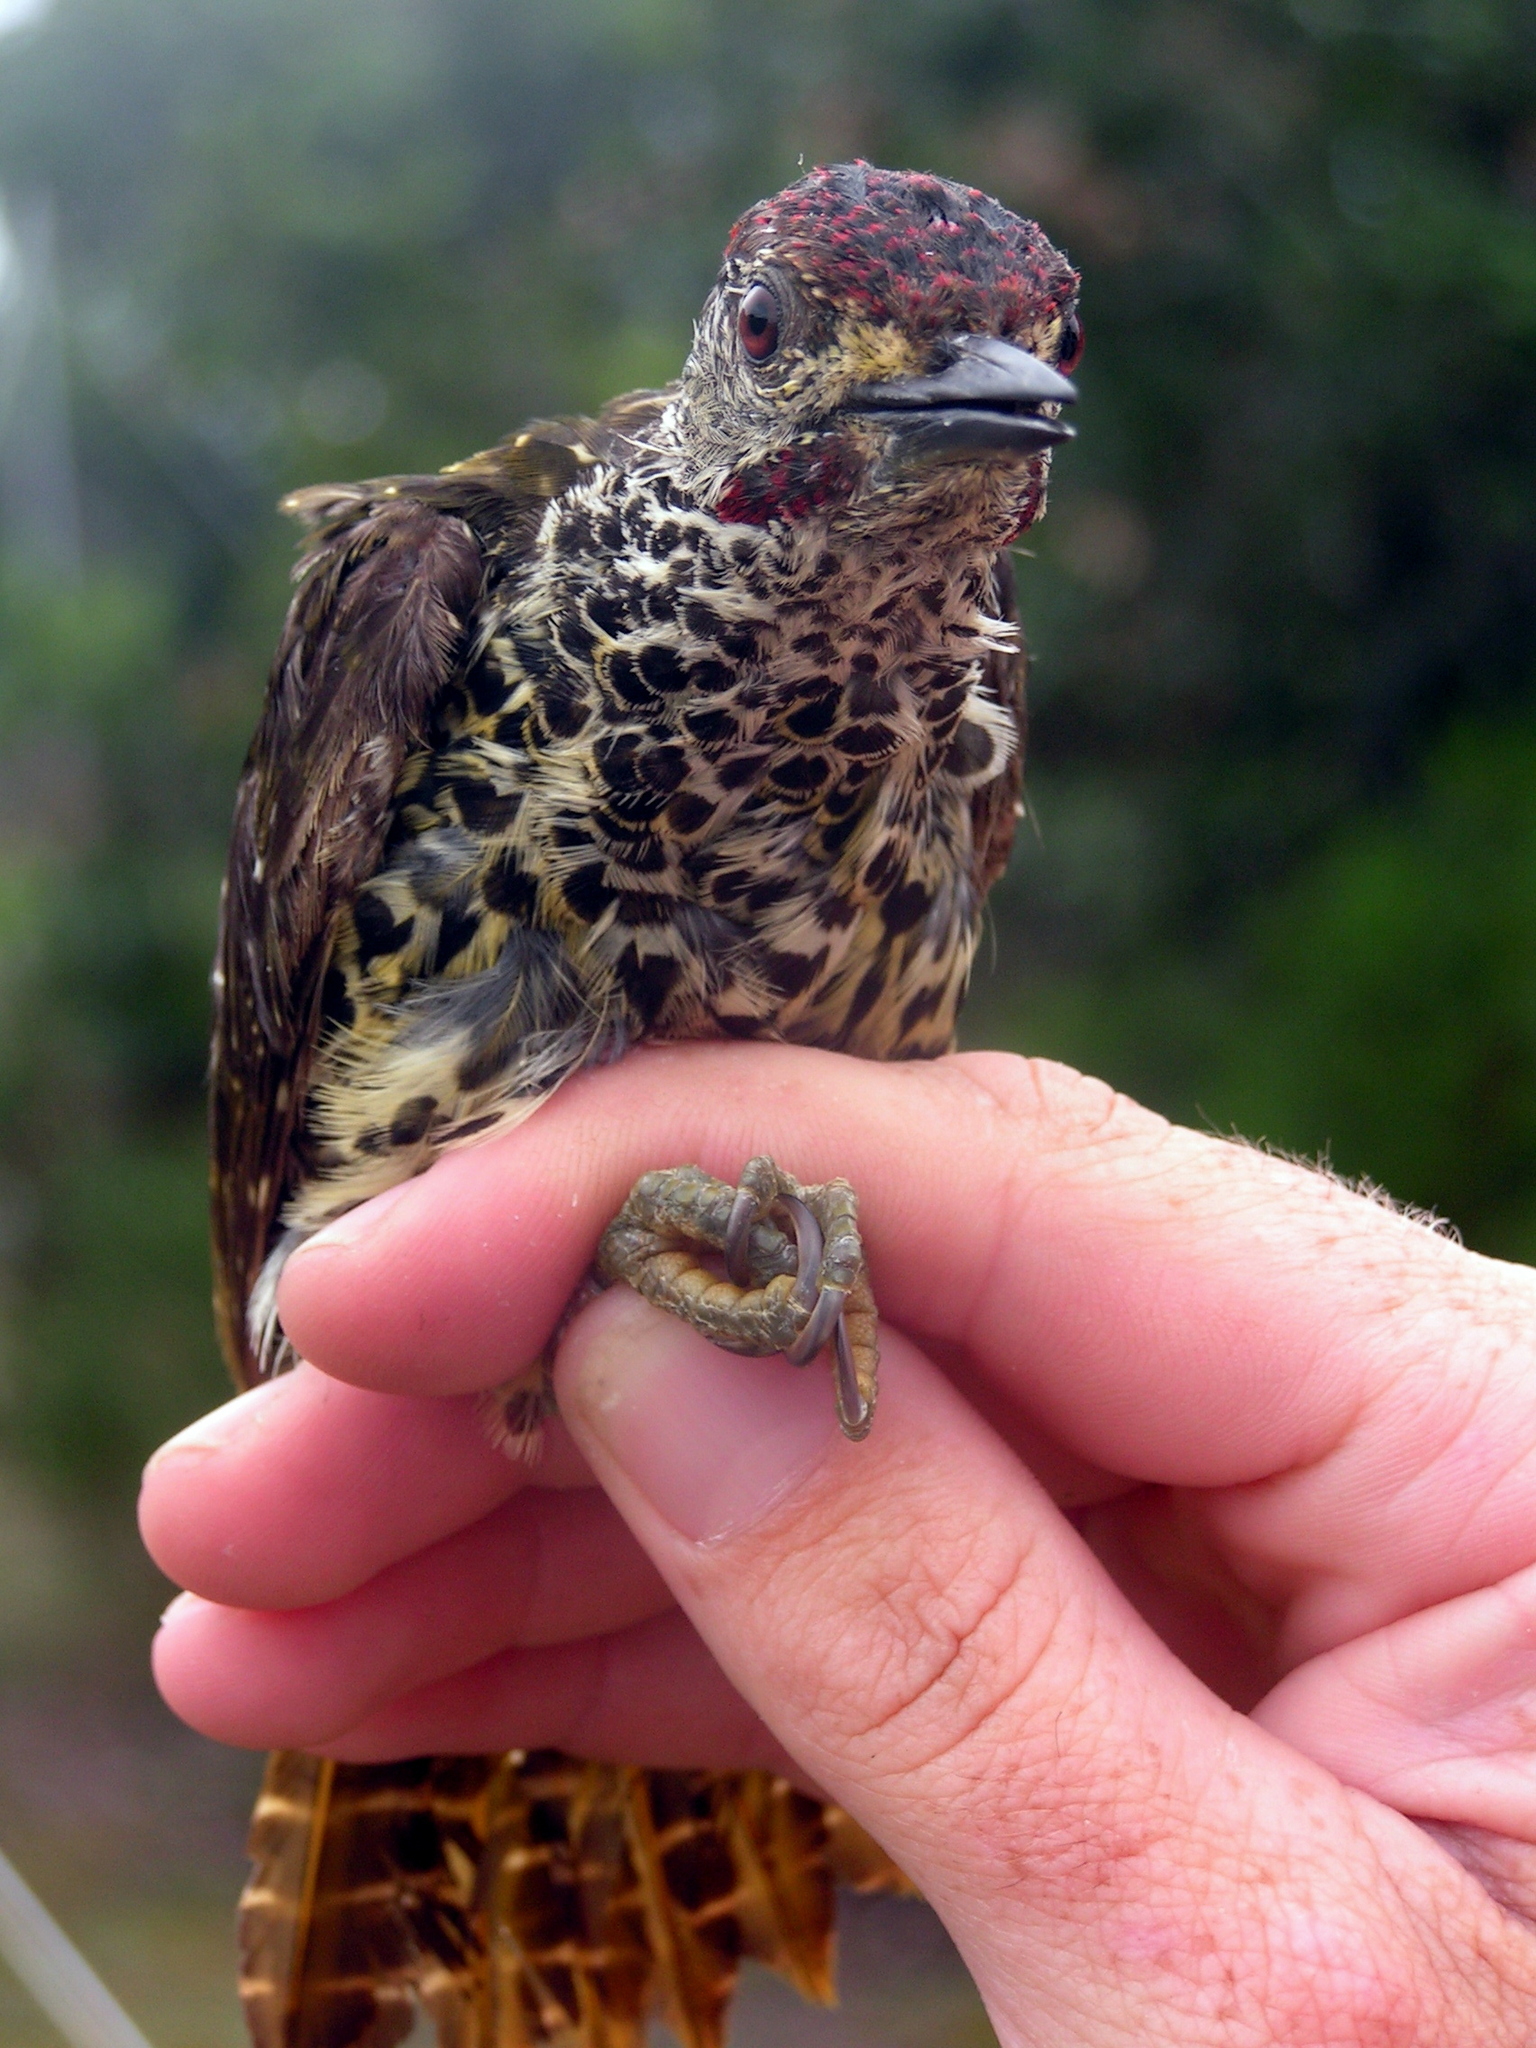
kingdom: Animalia
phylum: Chordata
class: Aves
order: Piciformes
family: Picidae
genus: Campethera
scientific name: Campethera notata
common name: Knysna woodpecker
